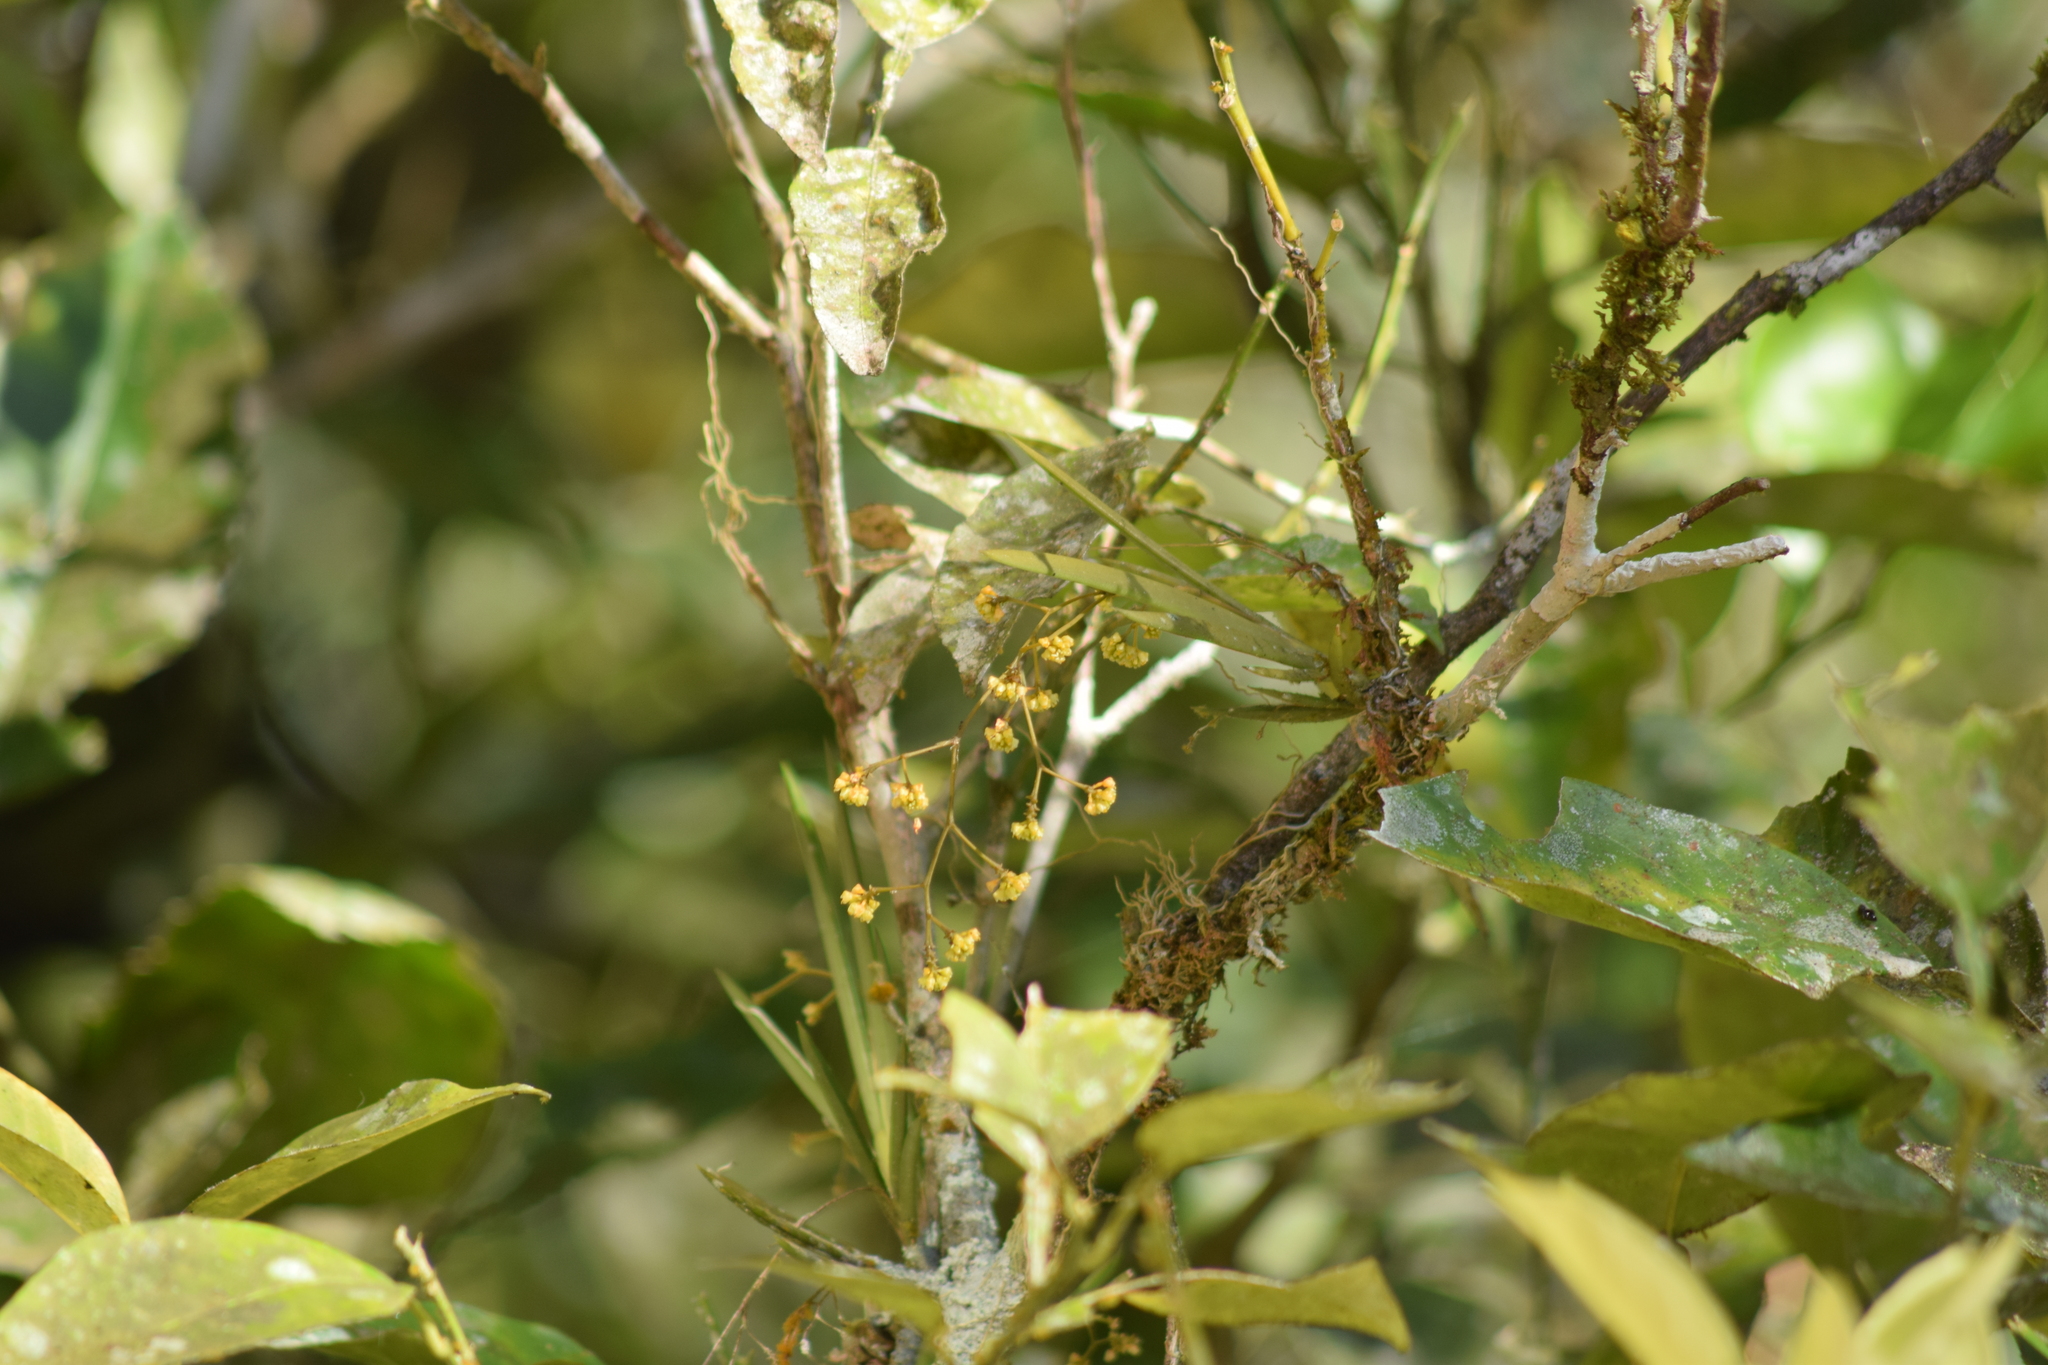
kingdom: Plantae
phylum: Tracheophyta
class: Liliopsida
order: Asparagales
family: Orchidaceae
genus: Trizeuxis
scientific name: Trizeuxis falcata
